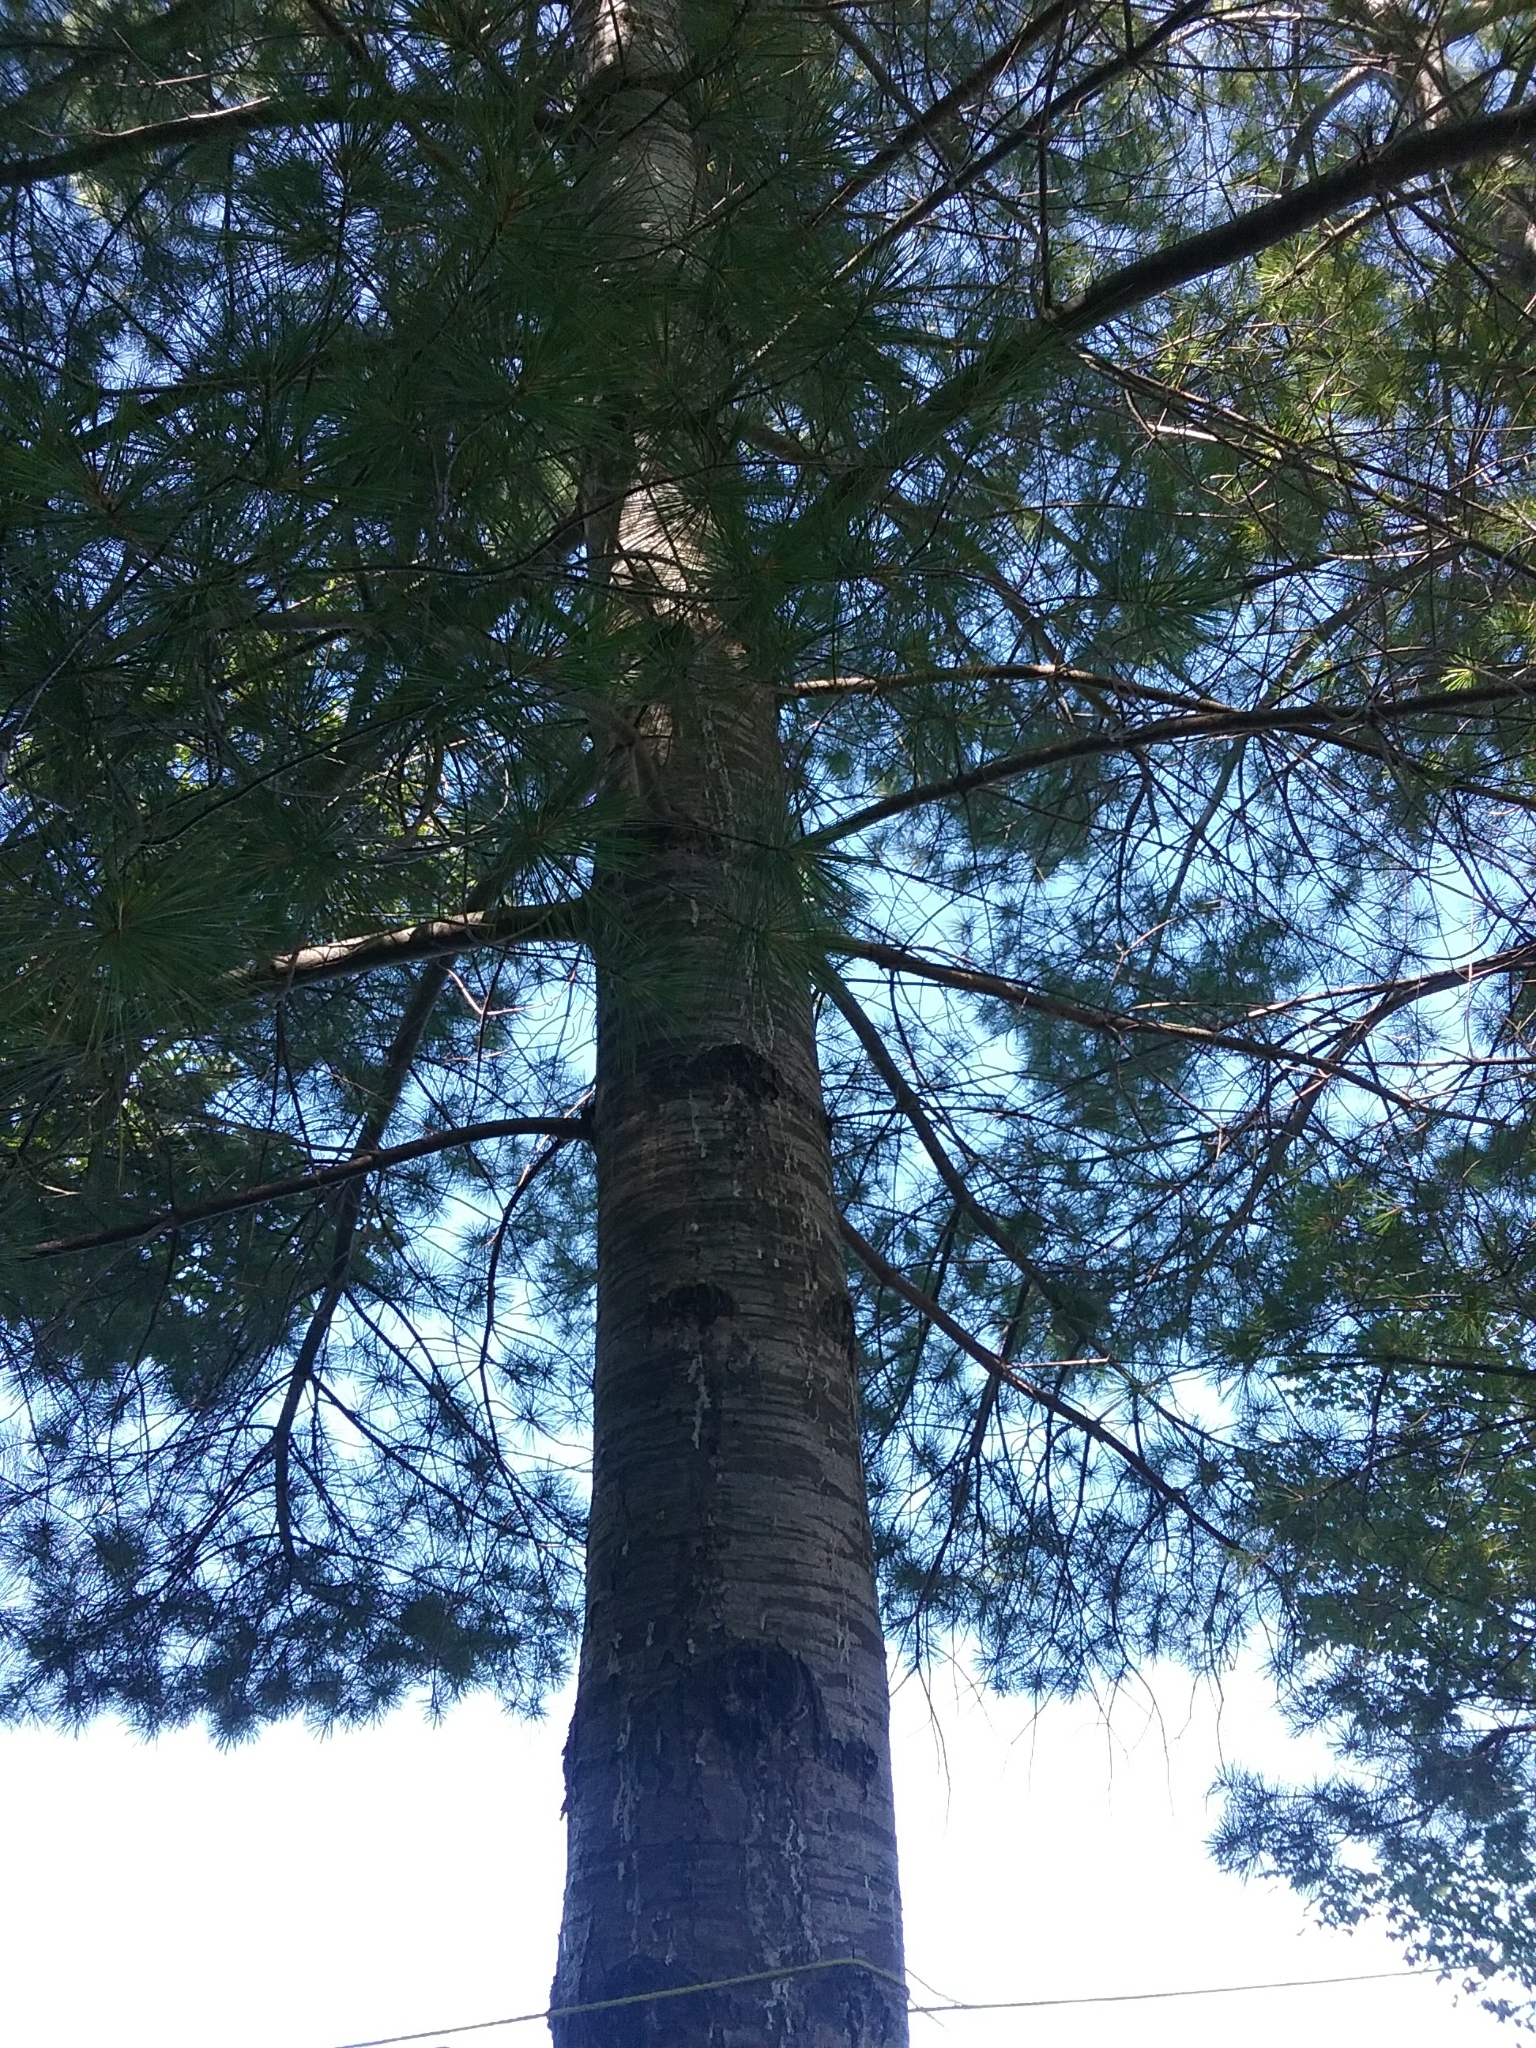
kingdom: Plantae
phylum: Tracheophyta
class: Pinopsida
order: Pinales
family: Pinaceae
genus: Pinus
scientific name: Pinus strobus
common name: Weymouth pine
